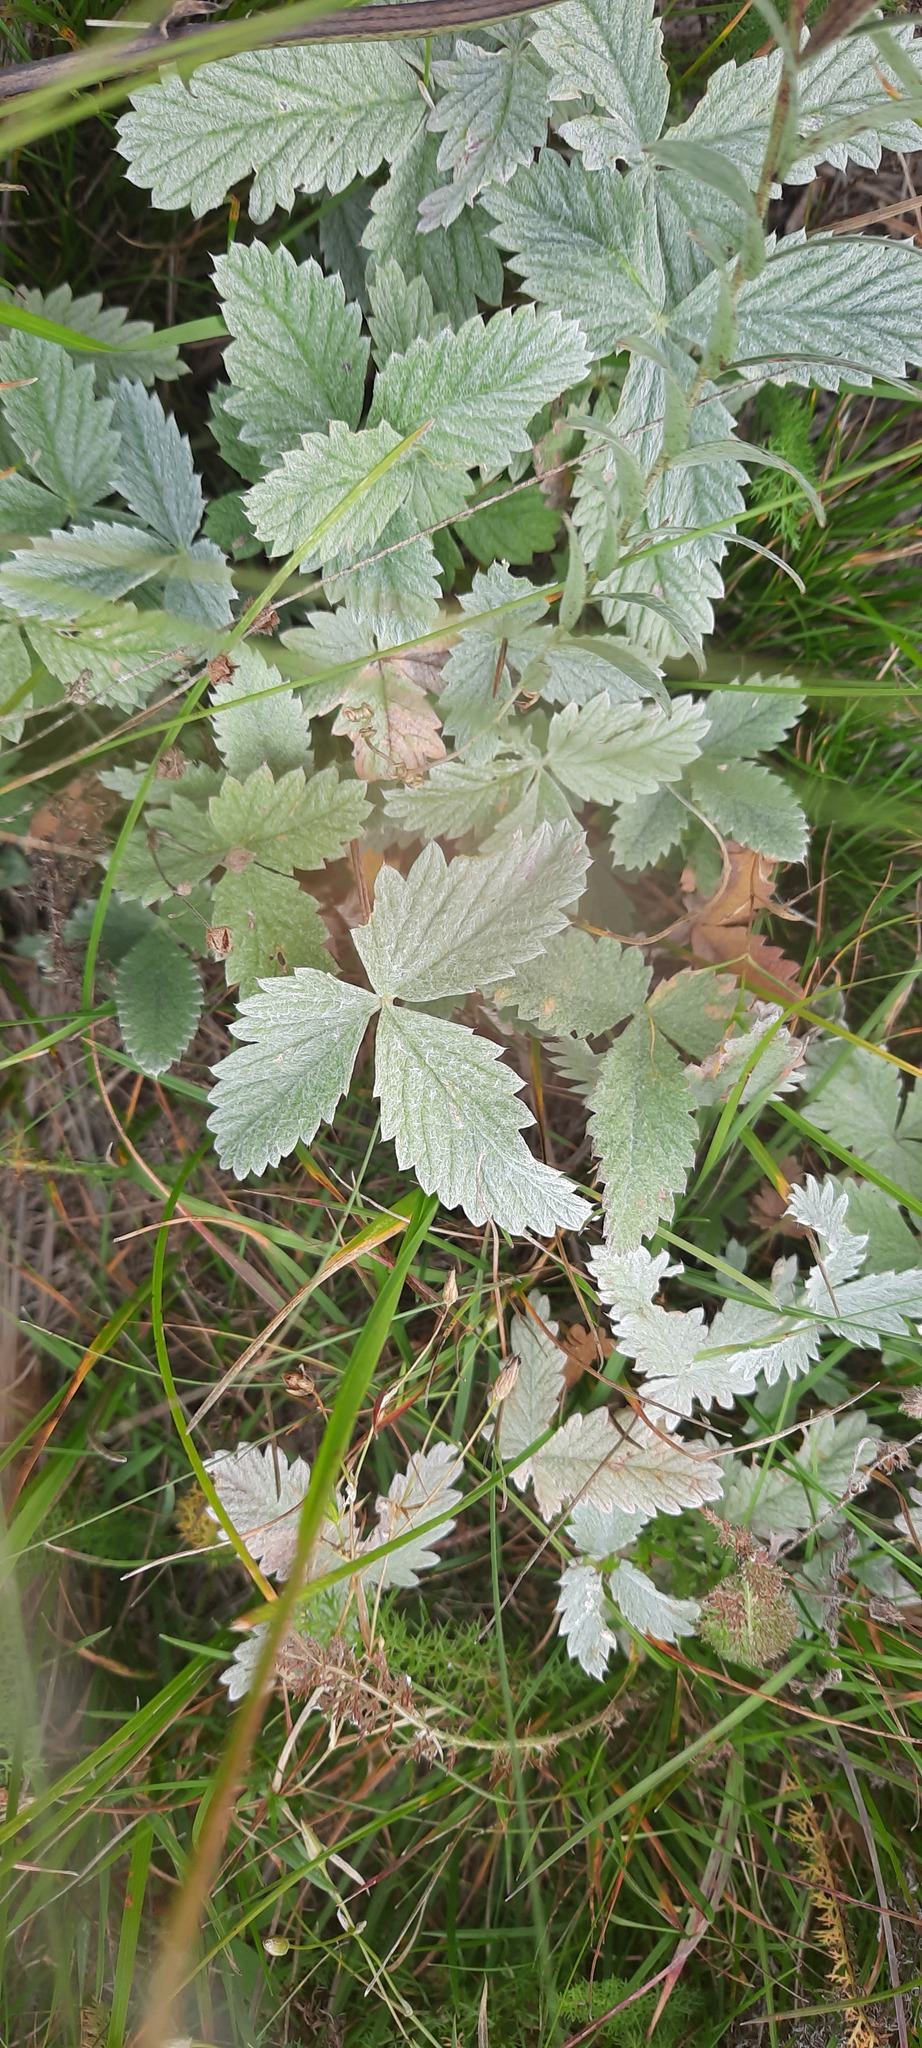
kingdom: Plantae
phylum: Tracheophyta
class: Magnoliopsida
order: Rosales
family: Rosaceae
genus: Potentilla
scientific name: Potentilla nivea
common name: Snow cinquefoil
